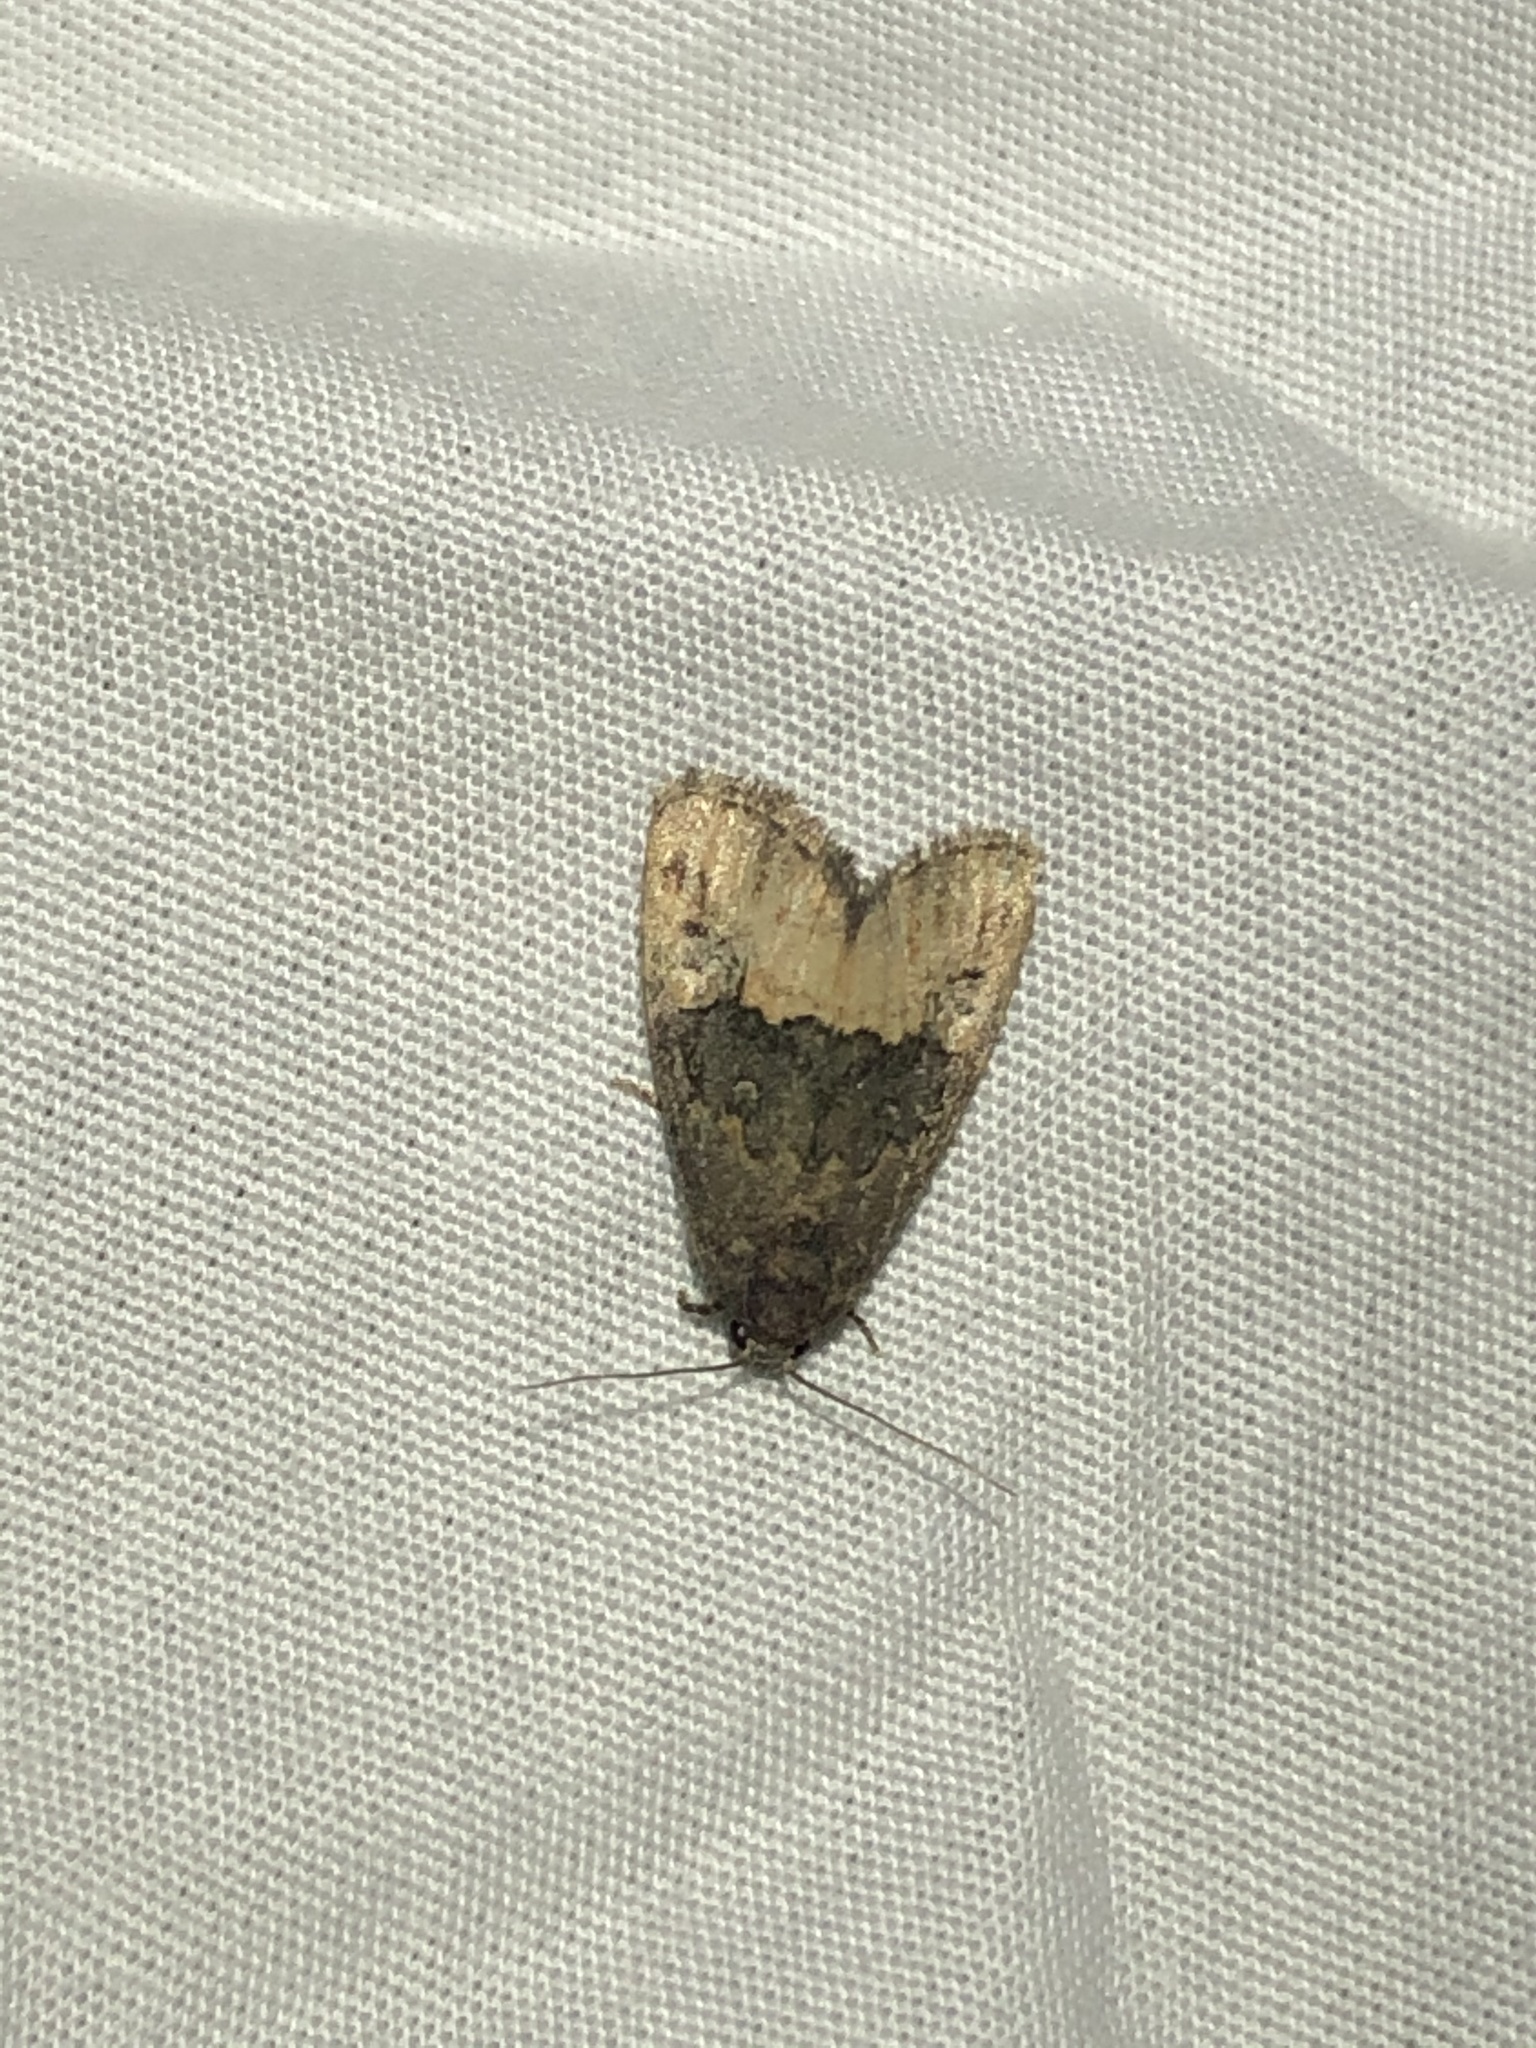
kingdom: Animalia
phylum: Arthropoda
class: Insecta
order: Lepidoptera
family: Noctuidae
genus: Ozarba
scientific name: Ozarba propera
